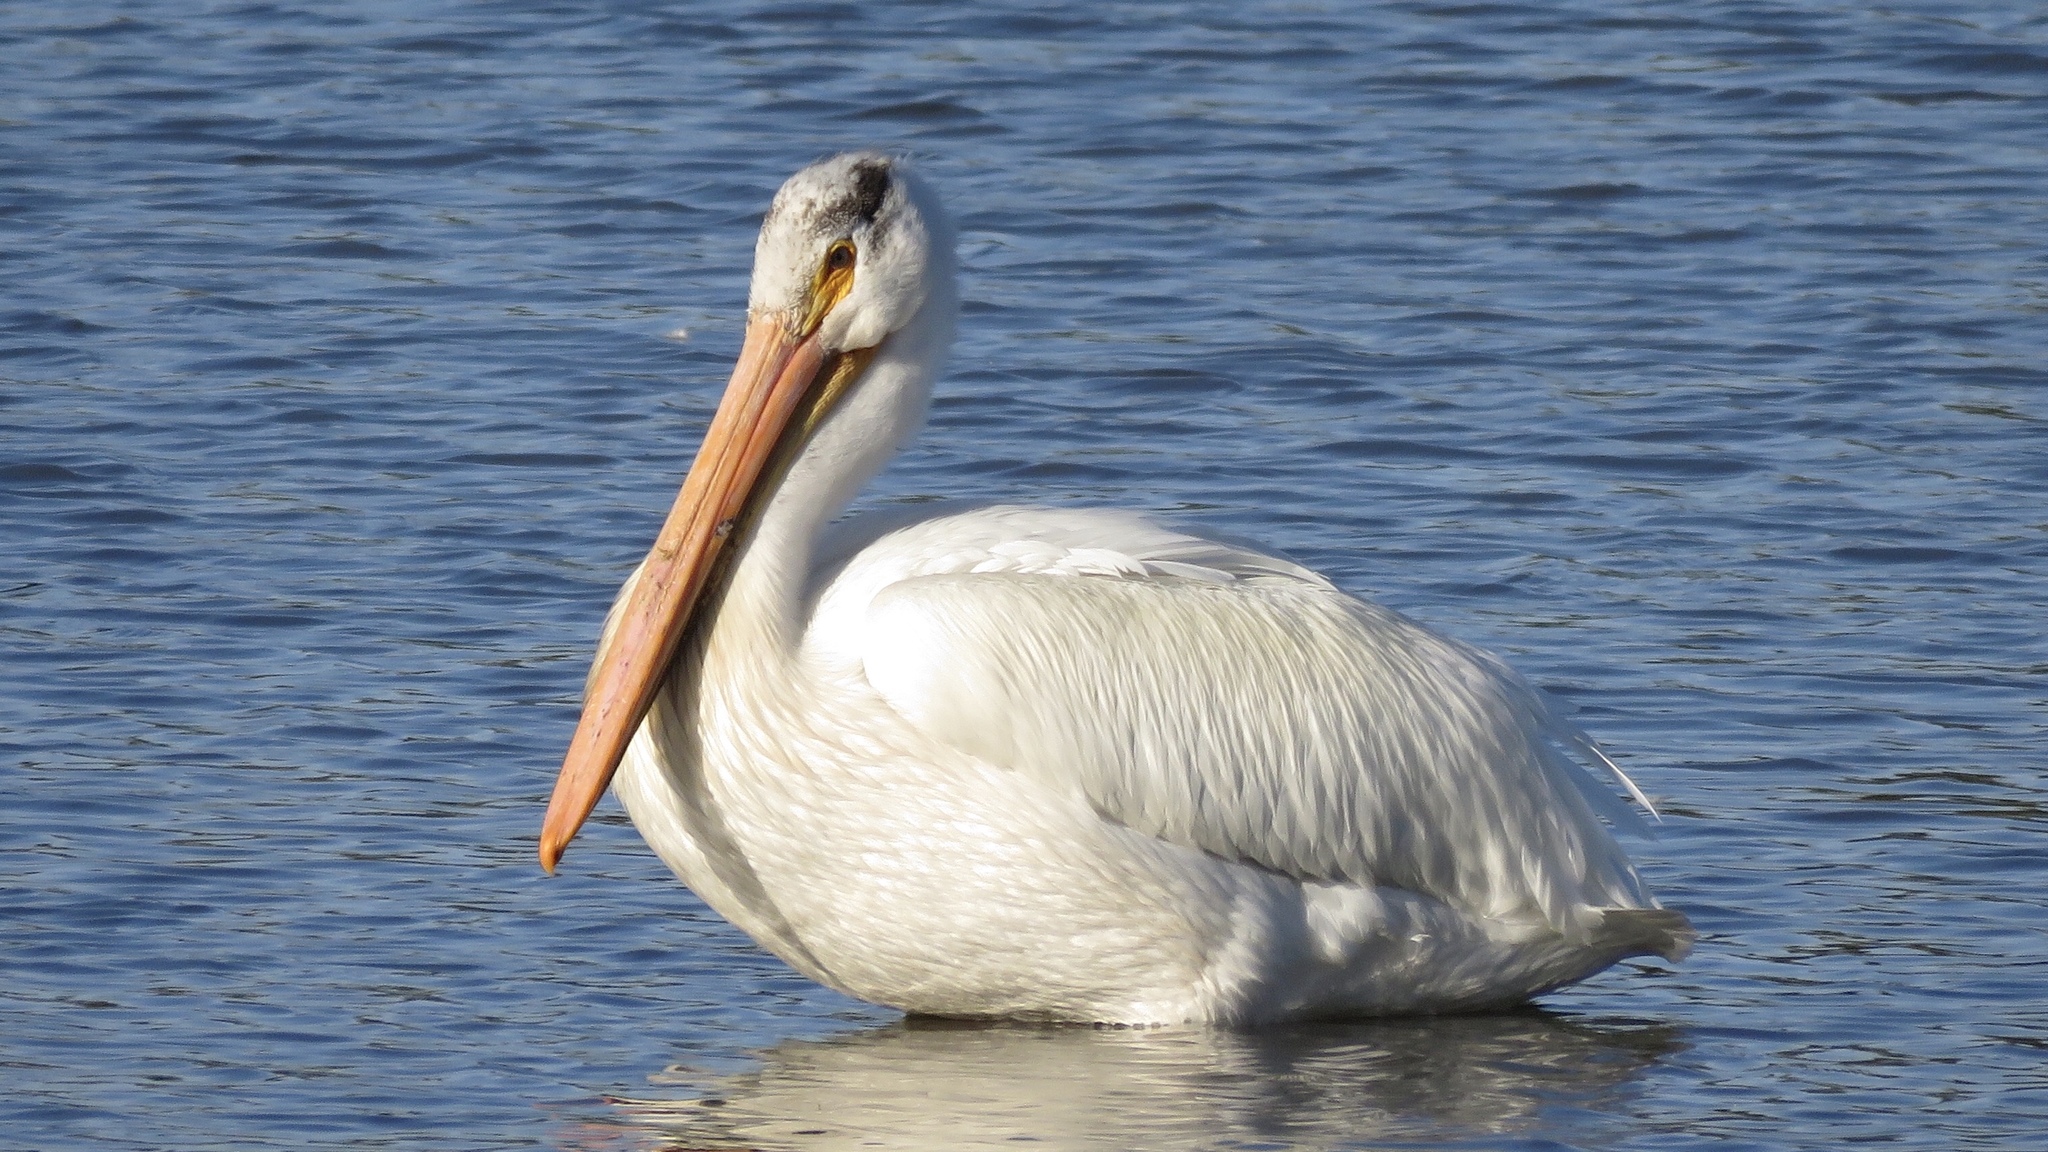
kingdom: Animalia
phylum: Chordata
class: Aves
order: Pelecaniformes
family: Pelecanidae
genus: Pelecanus
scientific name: Pelecanus erythrorhynchos
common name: American white pelican
